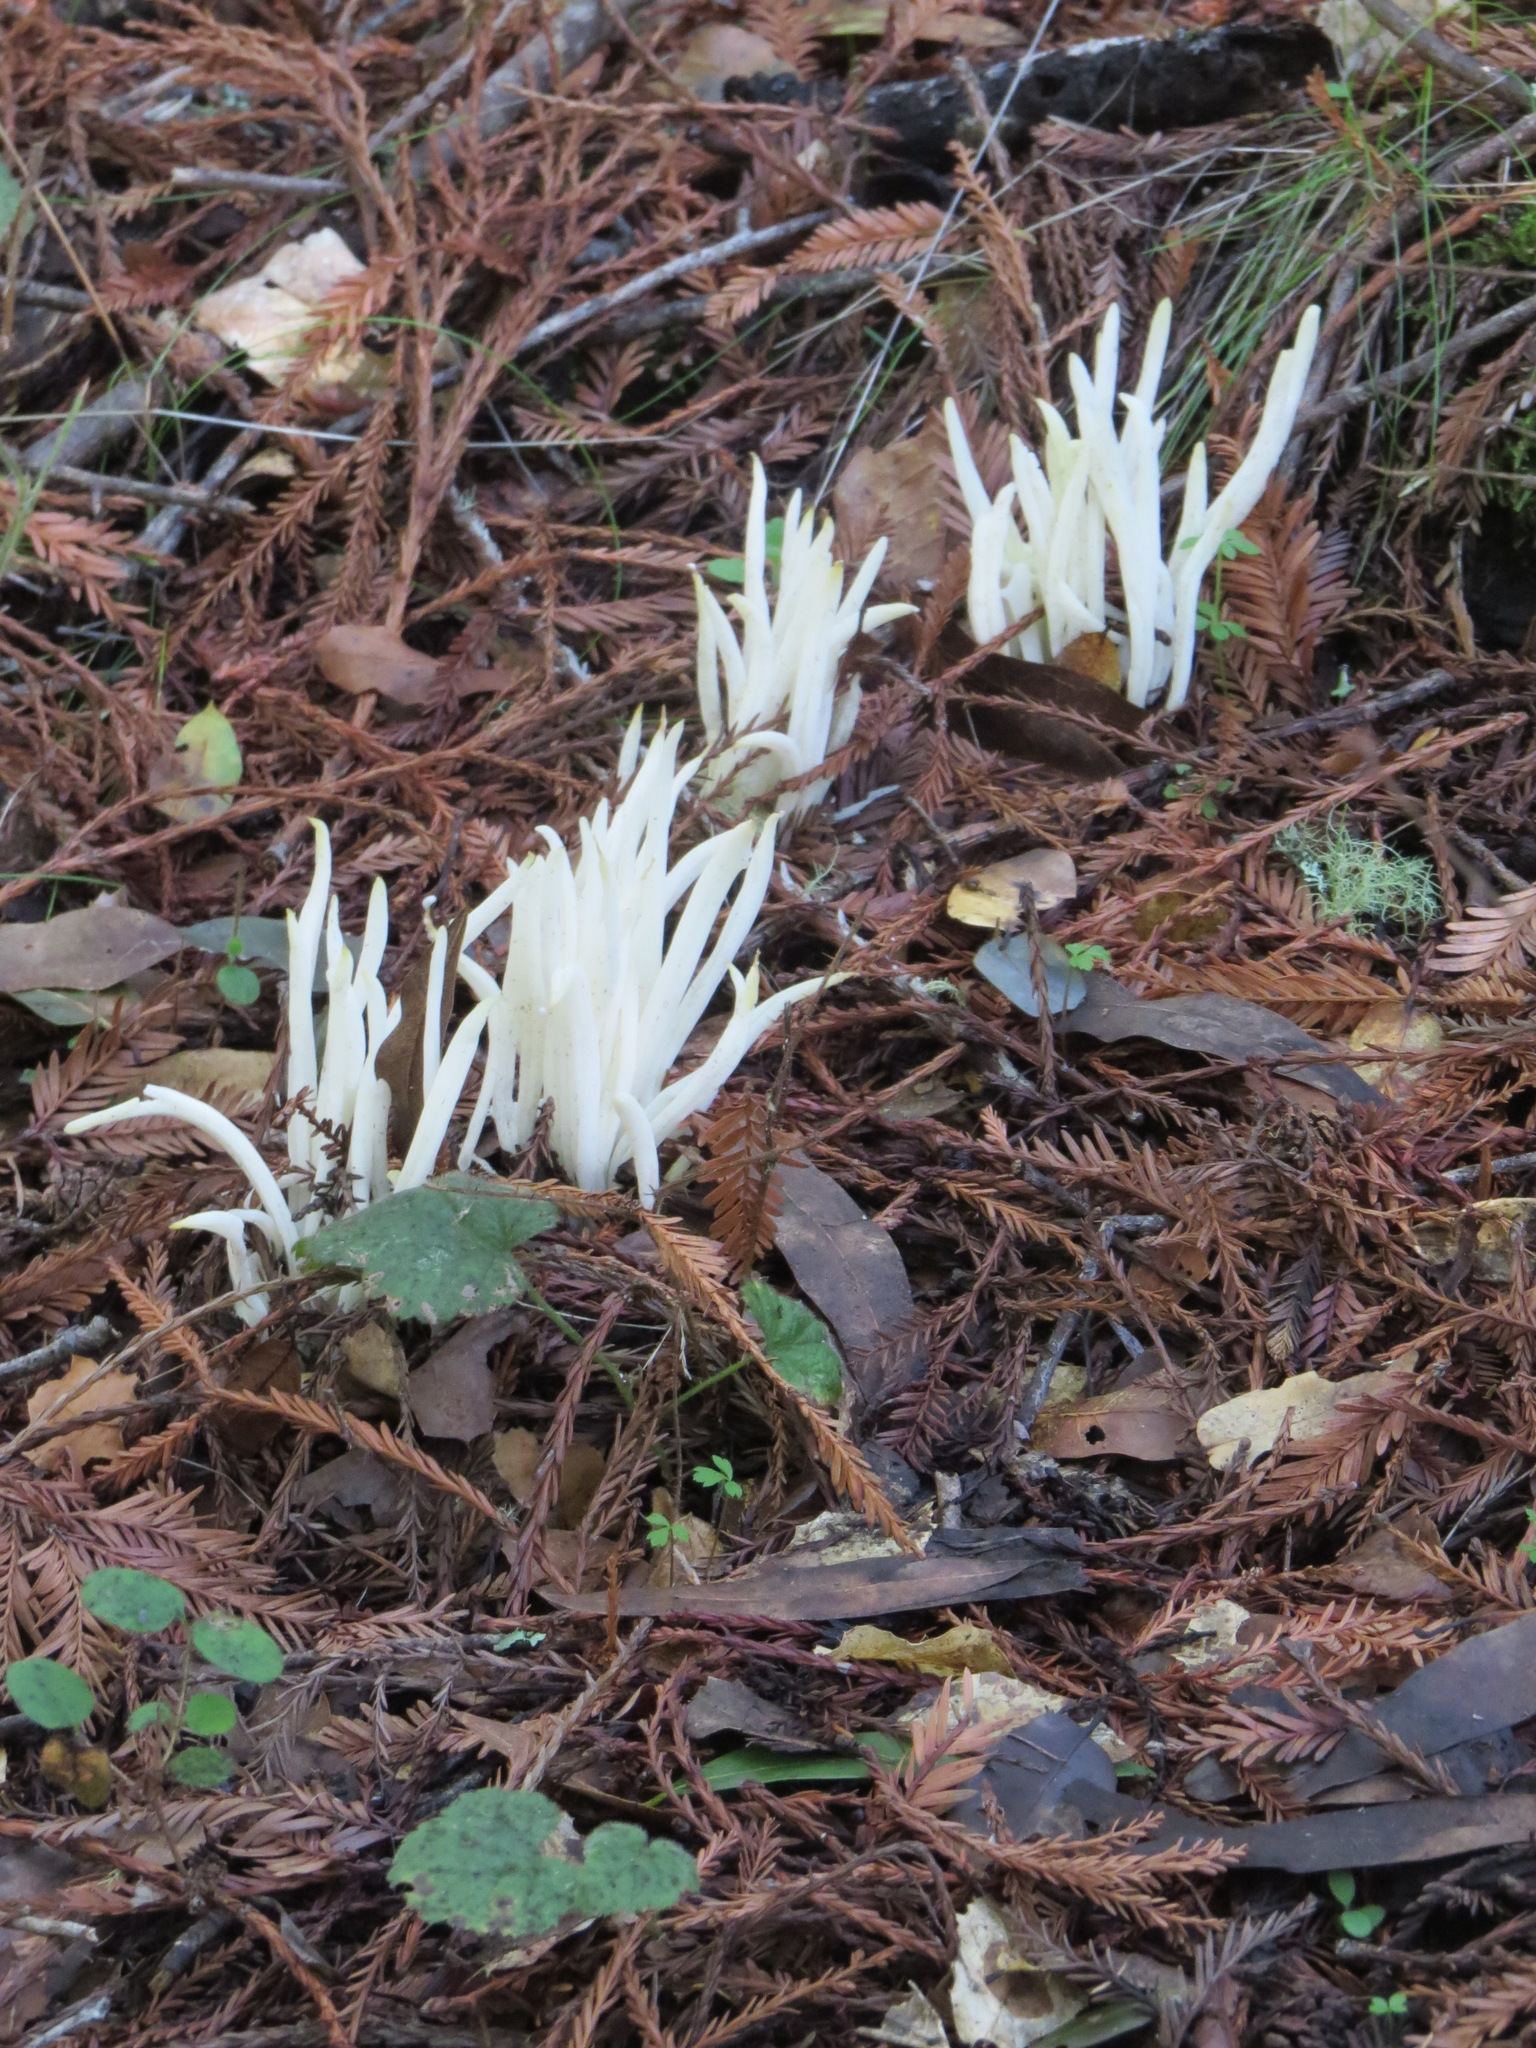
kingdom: Fungi
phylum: Basidiomycota
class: Agaricomycetes
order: Agaricales
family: Clavariaceae
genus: Clavaria
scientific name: Clavaria fragilis
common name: White spindles
